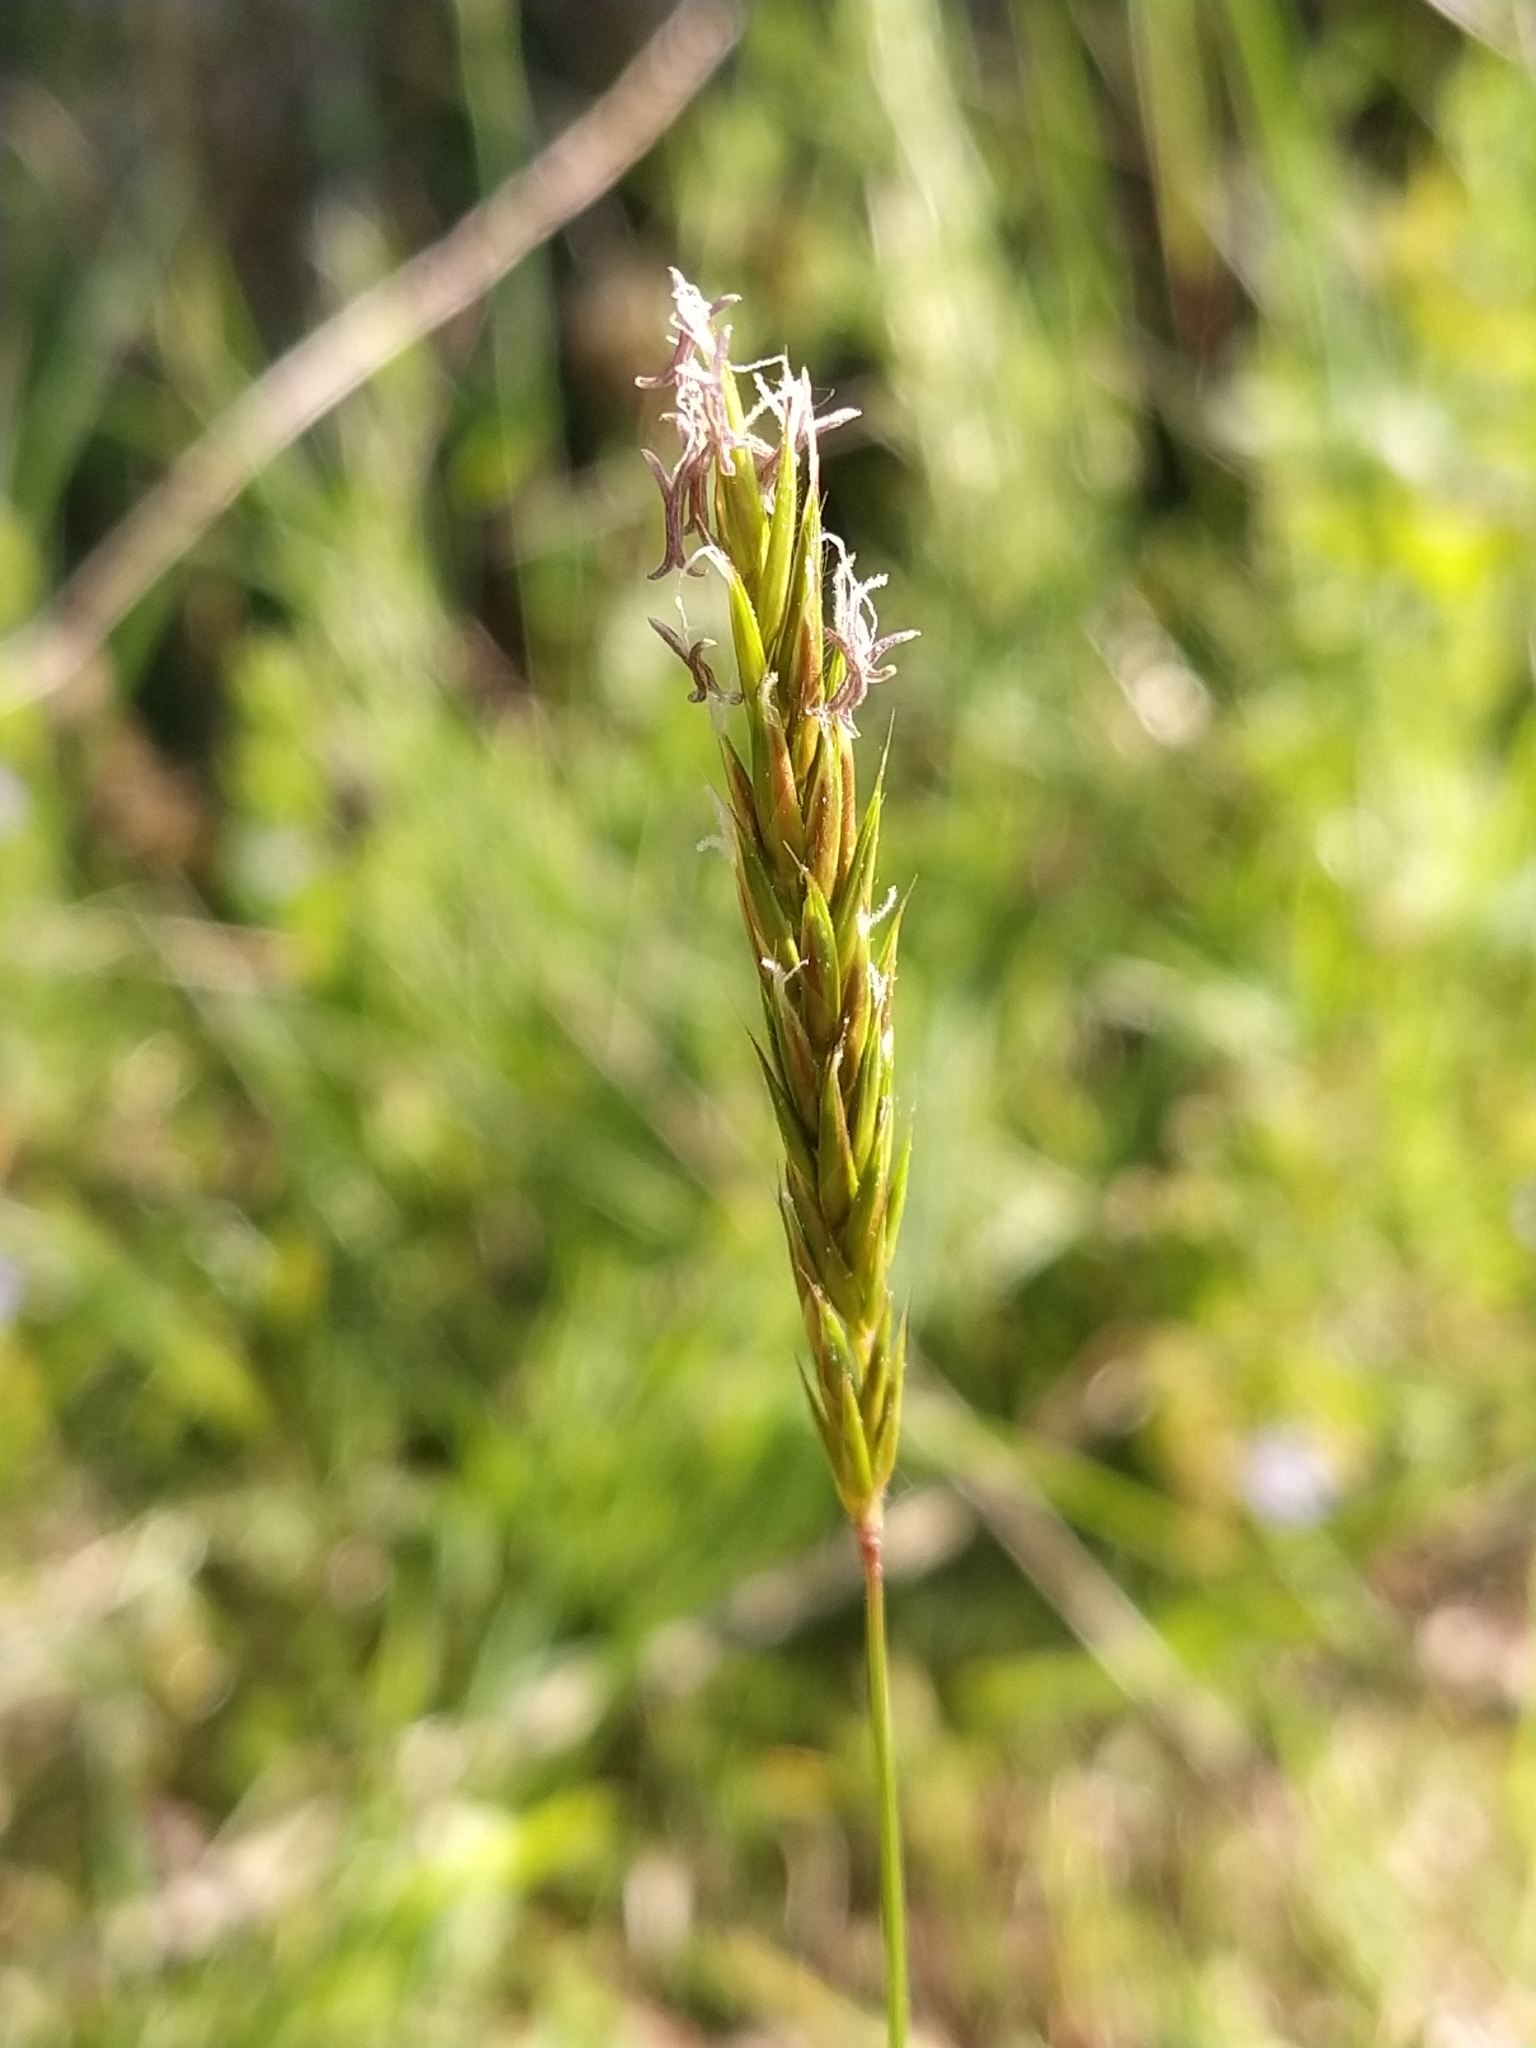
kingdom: Plantae
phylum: Tracheophyta
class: Liliopsida
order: Poales
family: Poaceae
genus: Anthoxanthum
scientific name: Anthoxanthum odoratum
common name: Sweet vernalgrass
